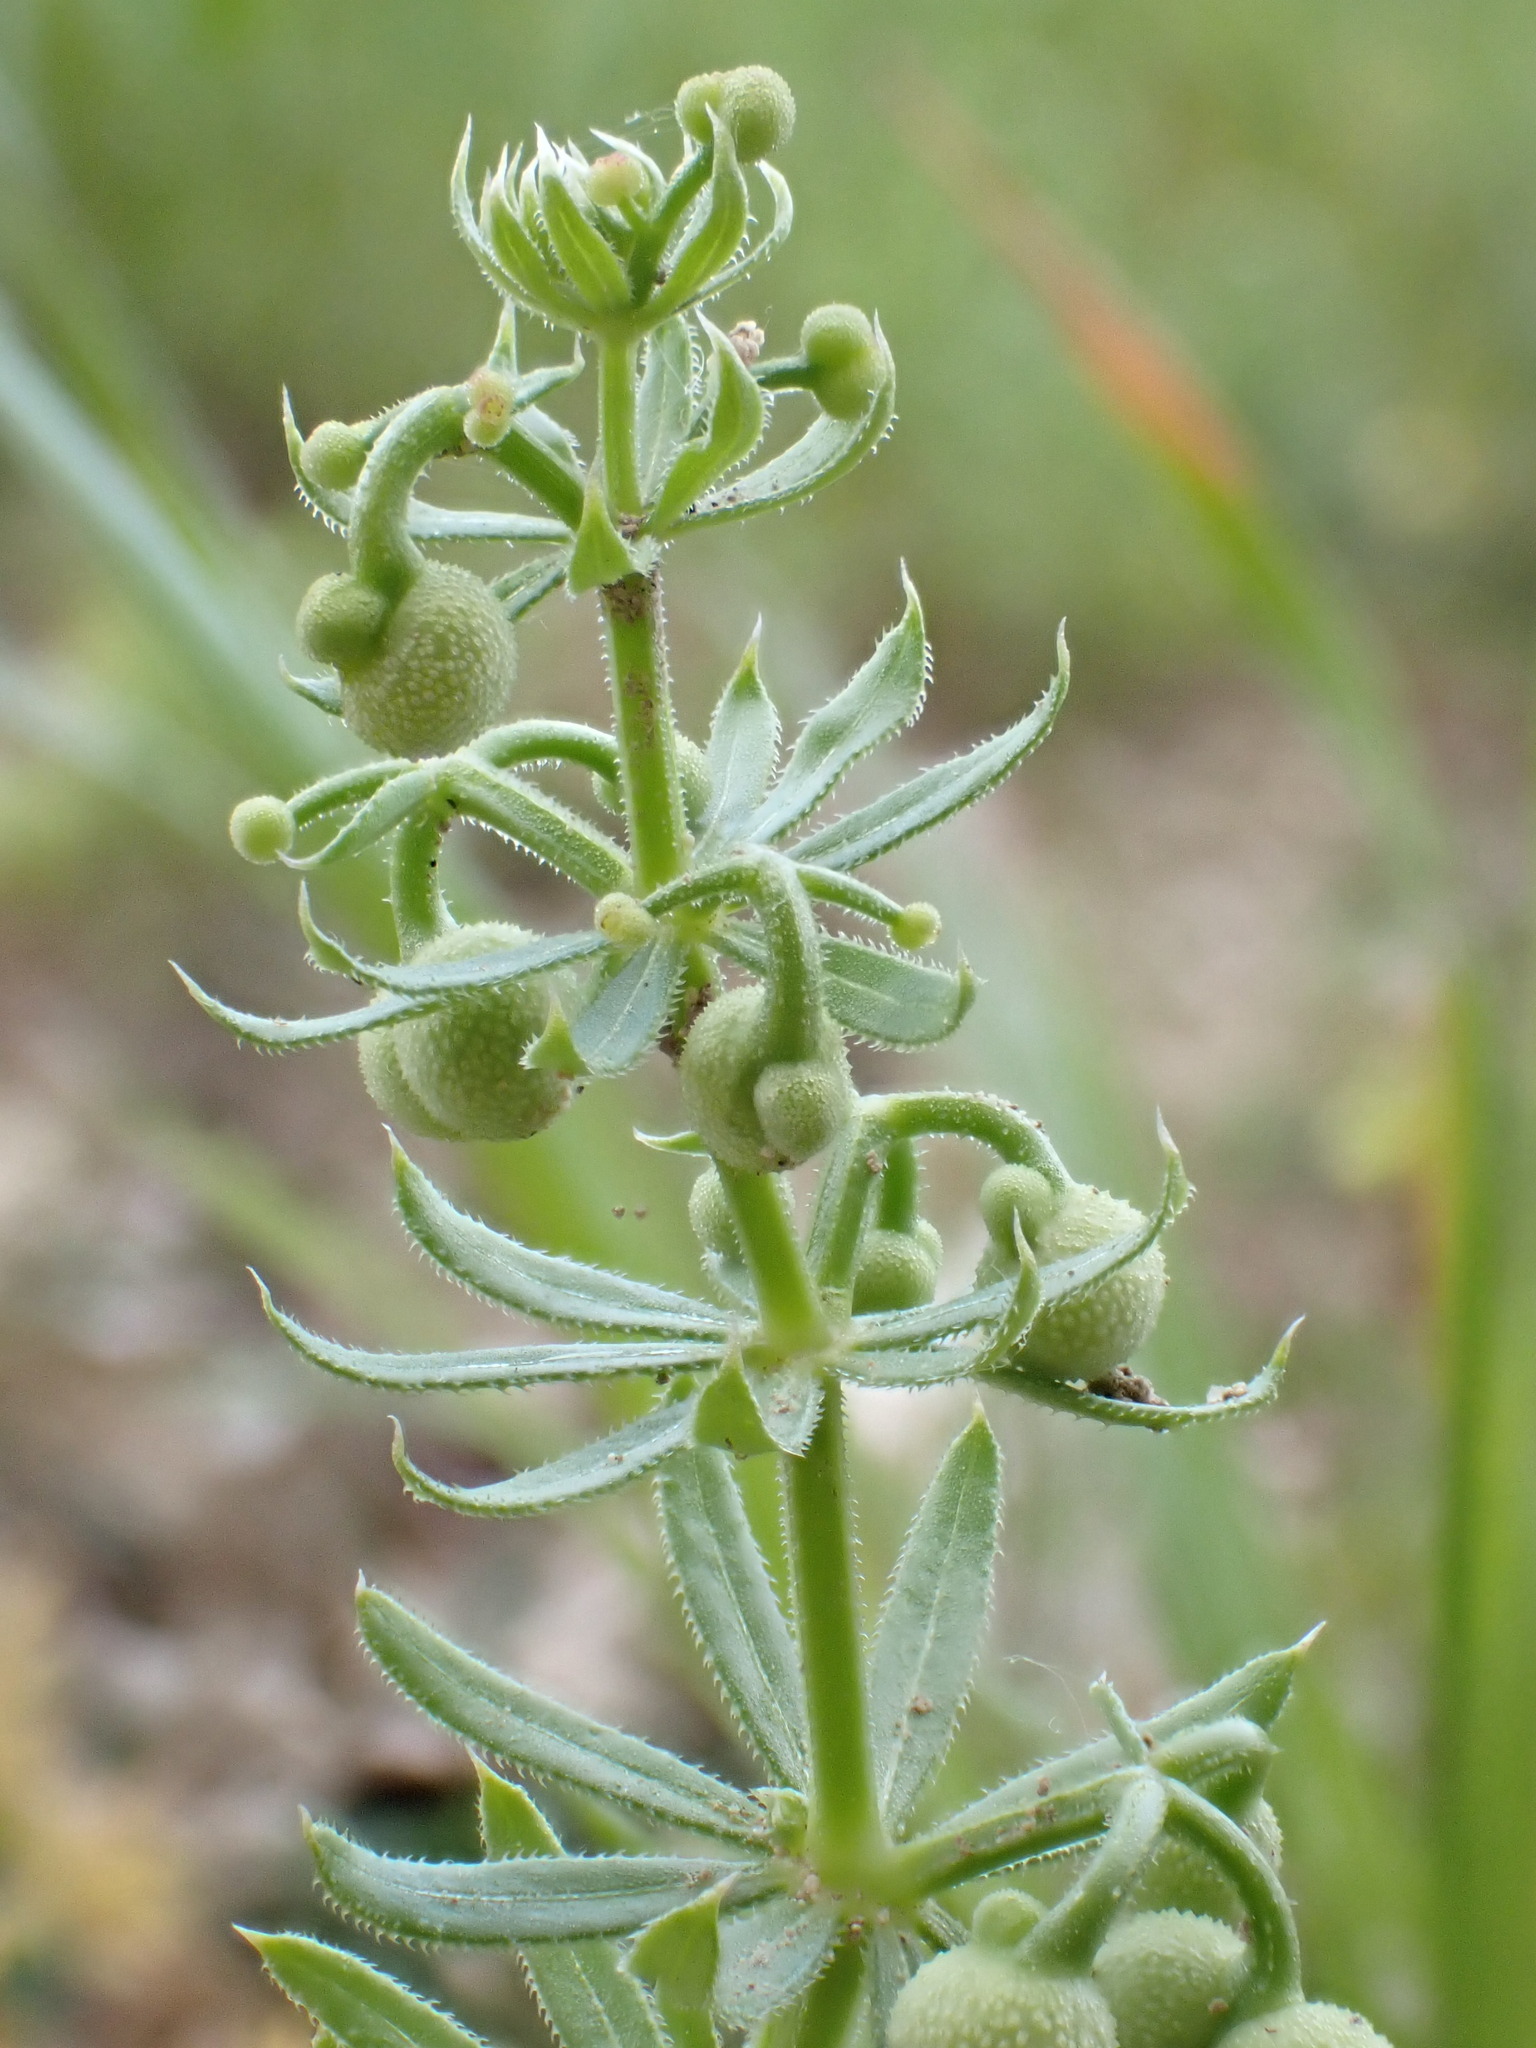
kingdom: Plantae
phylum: Tracheophyta
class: Magnoliopsida
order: Gentianales
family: Rubiaceae
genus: Galium
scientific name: Galium tricornutum
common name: Corn cleavers
